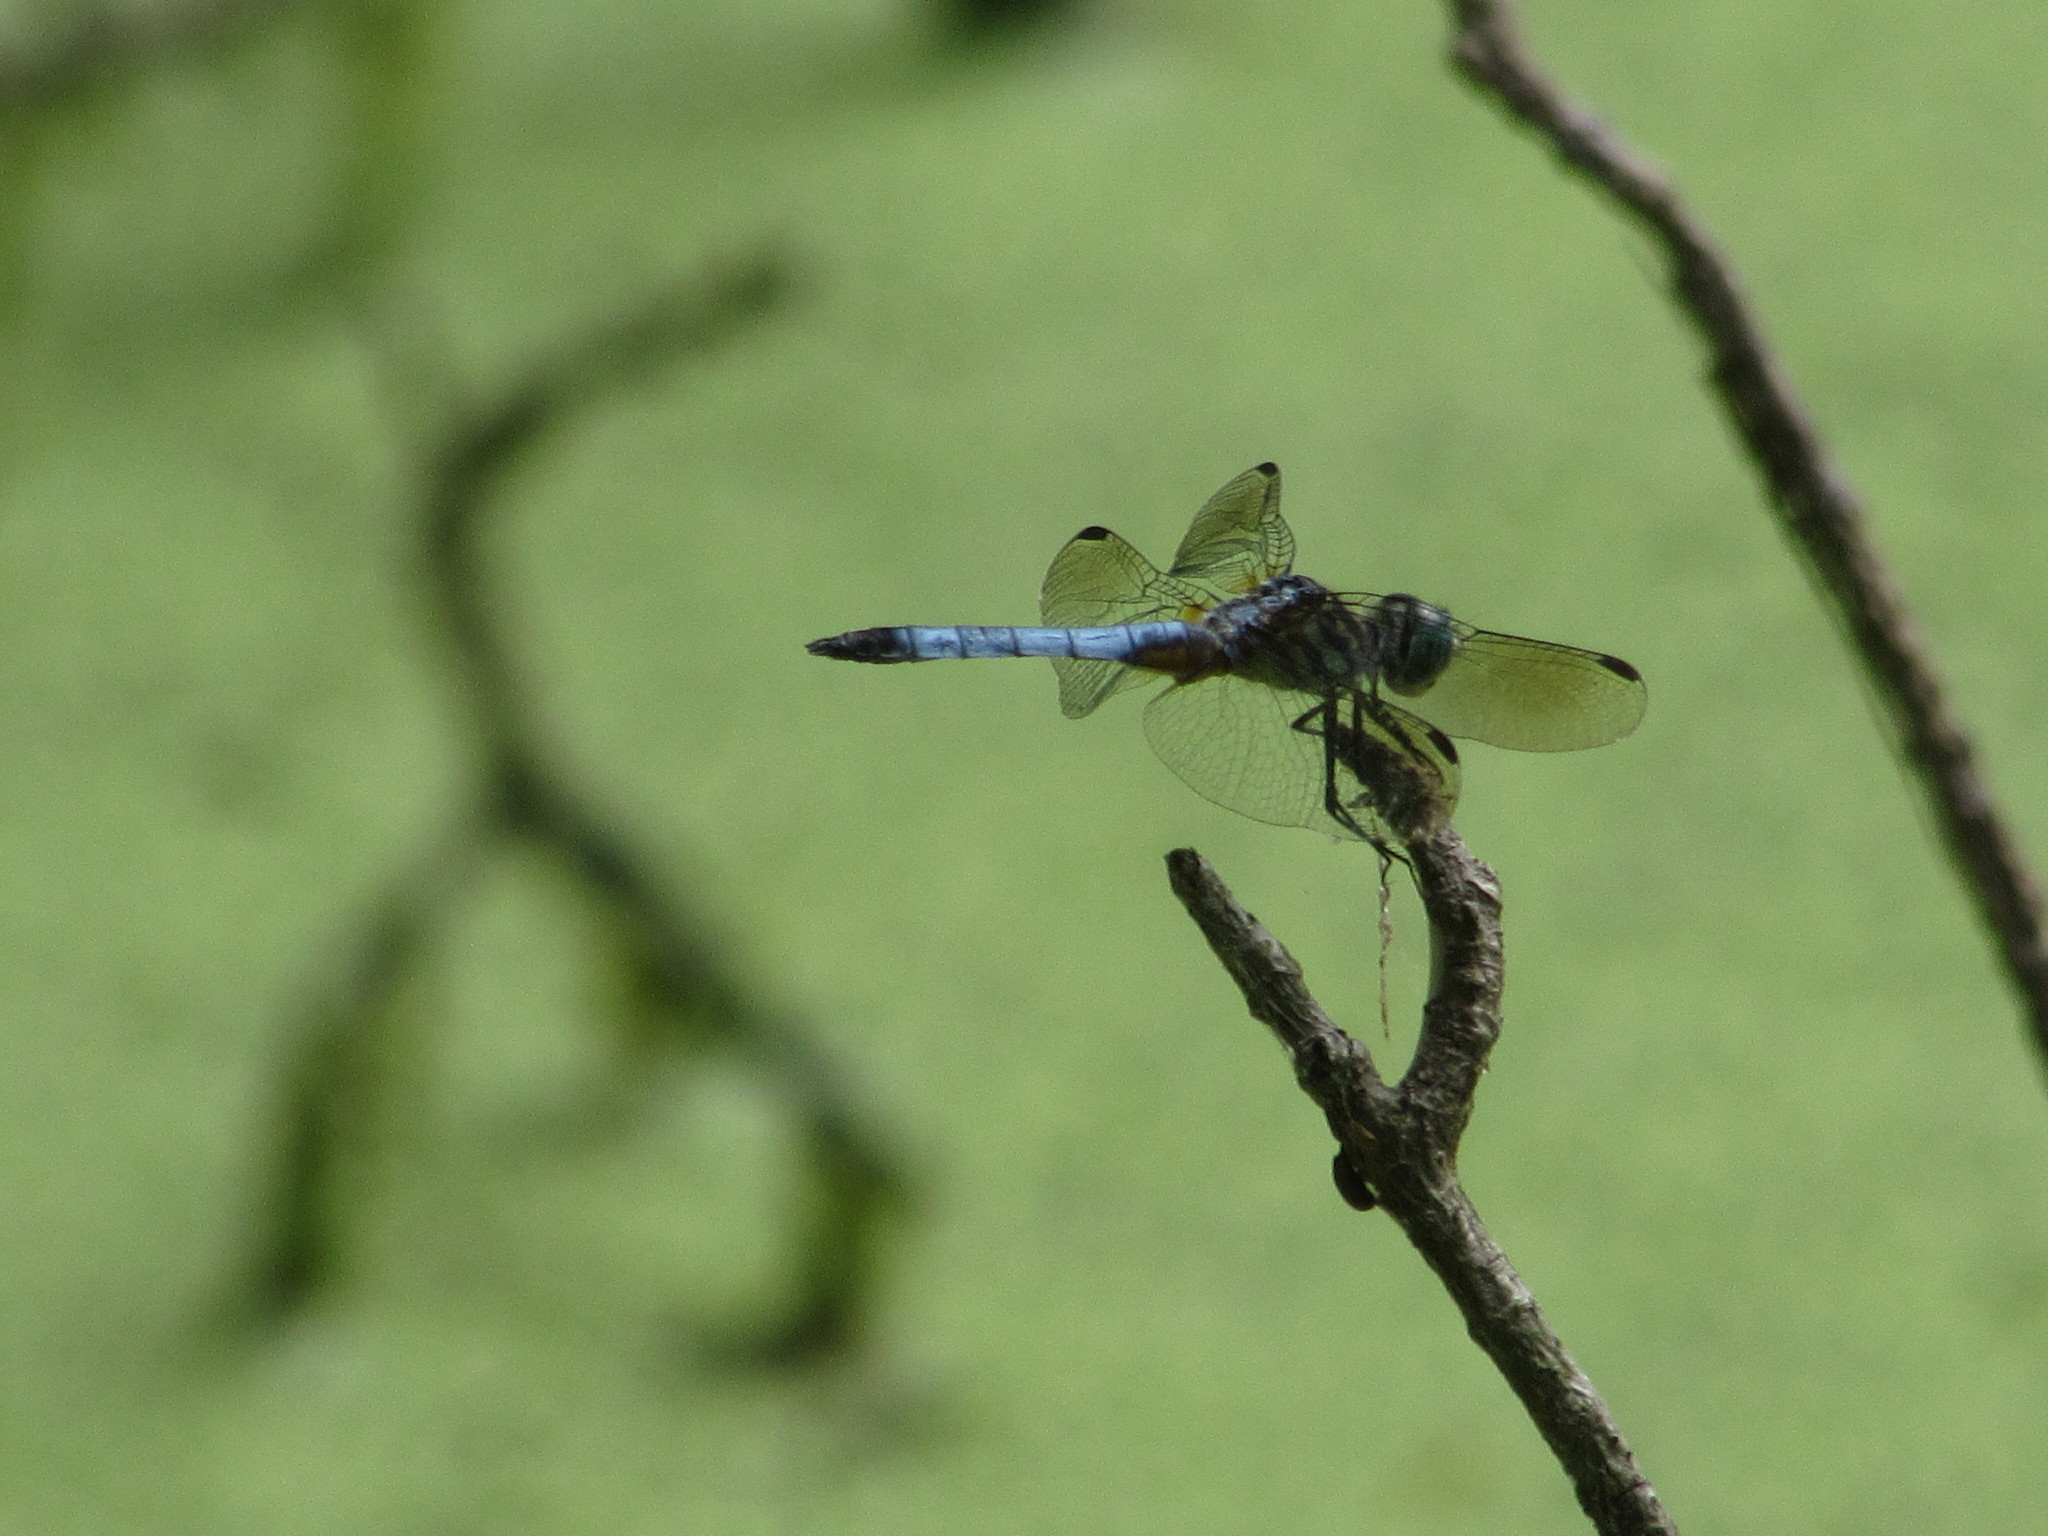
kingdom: Animalia
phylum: Arthropoda
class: Insecta
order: Odonata
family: Libellulidae
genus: Pachydiplax
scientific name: Pachydiplax longipennis
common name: Blue dasher
